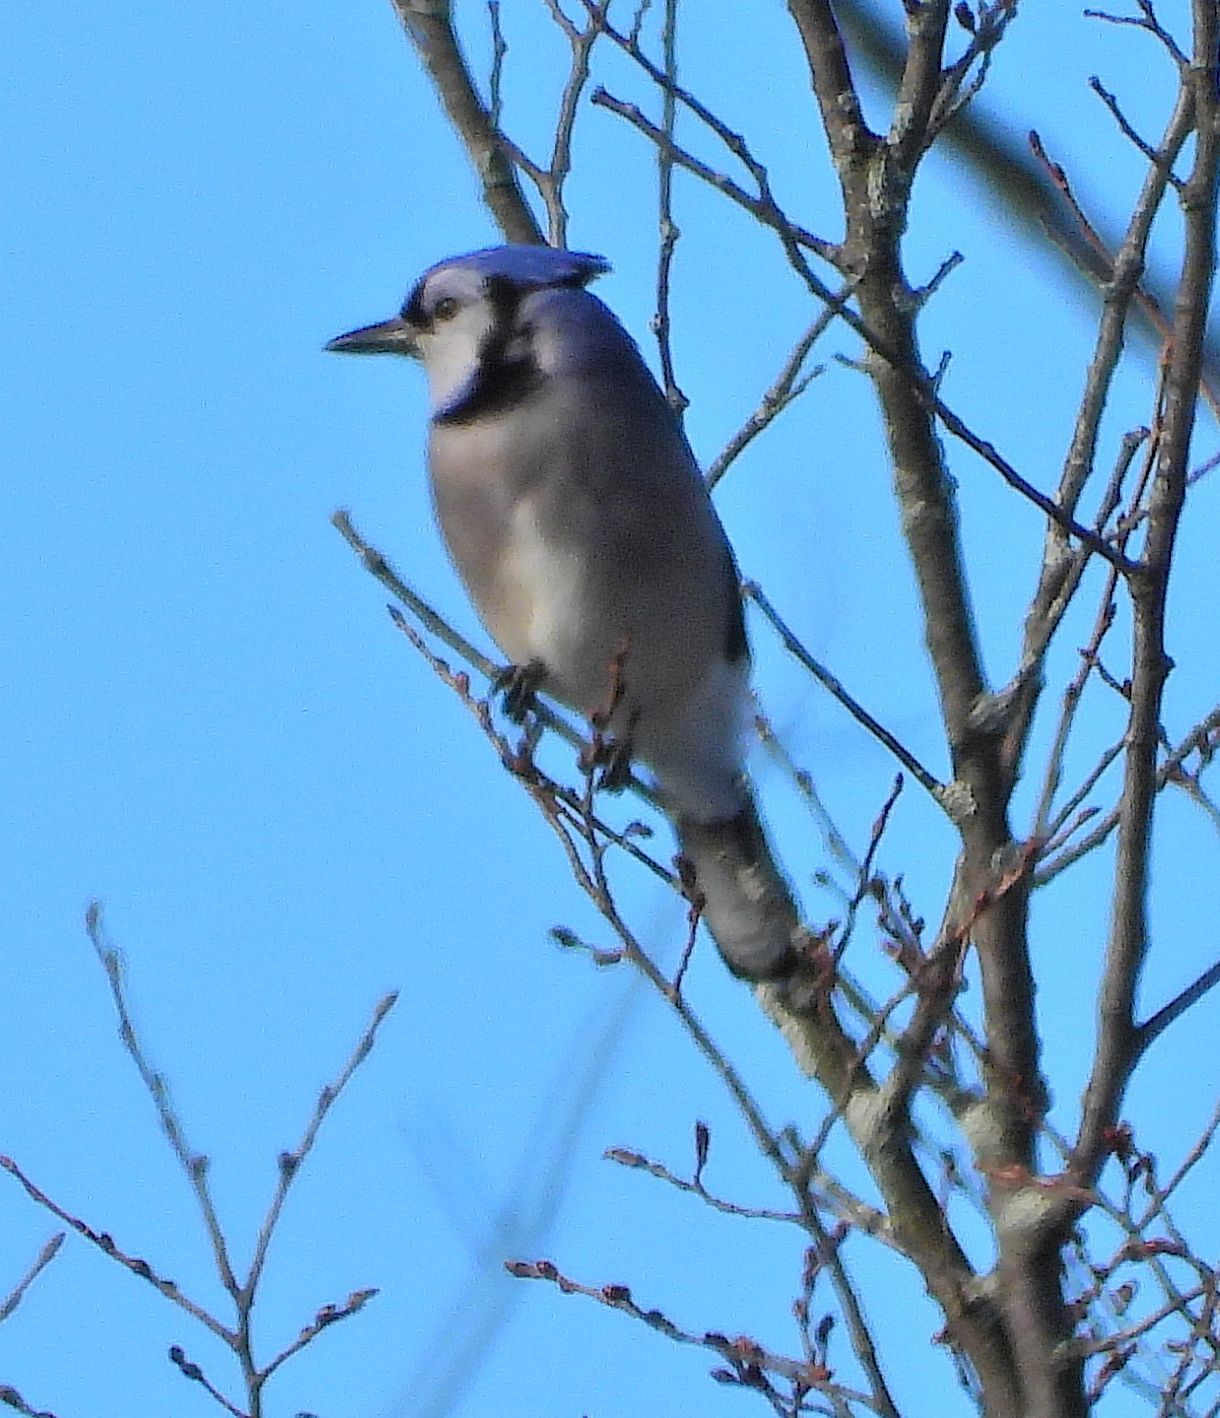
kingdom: Animalia
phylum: Chordata
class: Aves
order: Passeriformes
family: Corvidae
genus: Cyanocitta
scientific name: Cyanocitta cristata
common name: Blue jay
